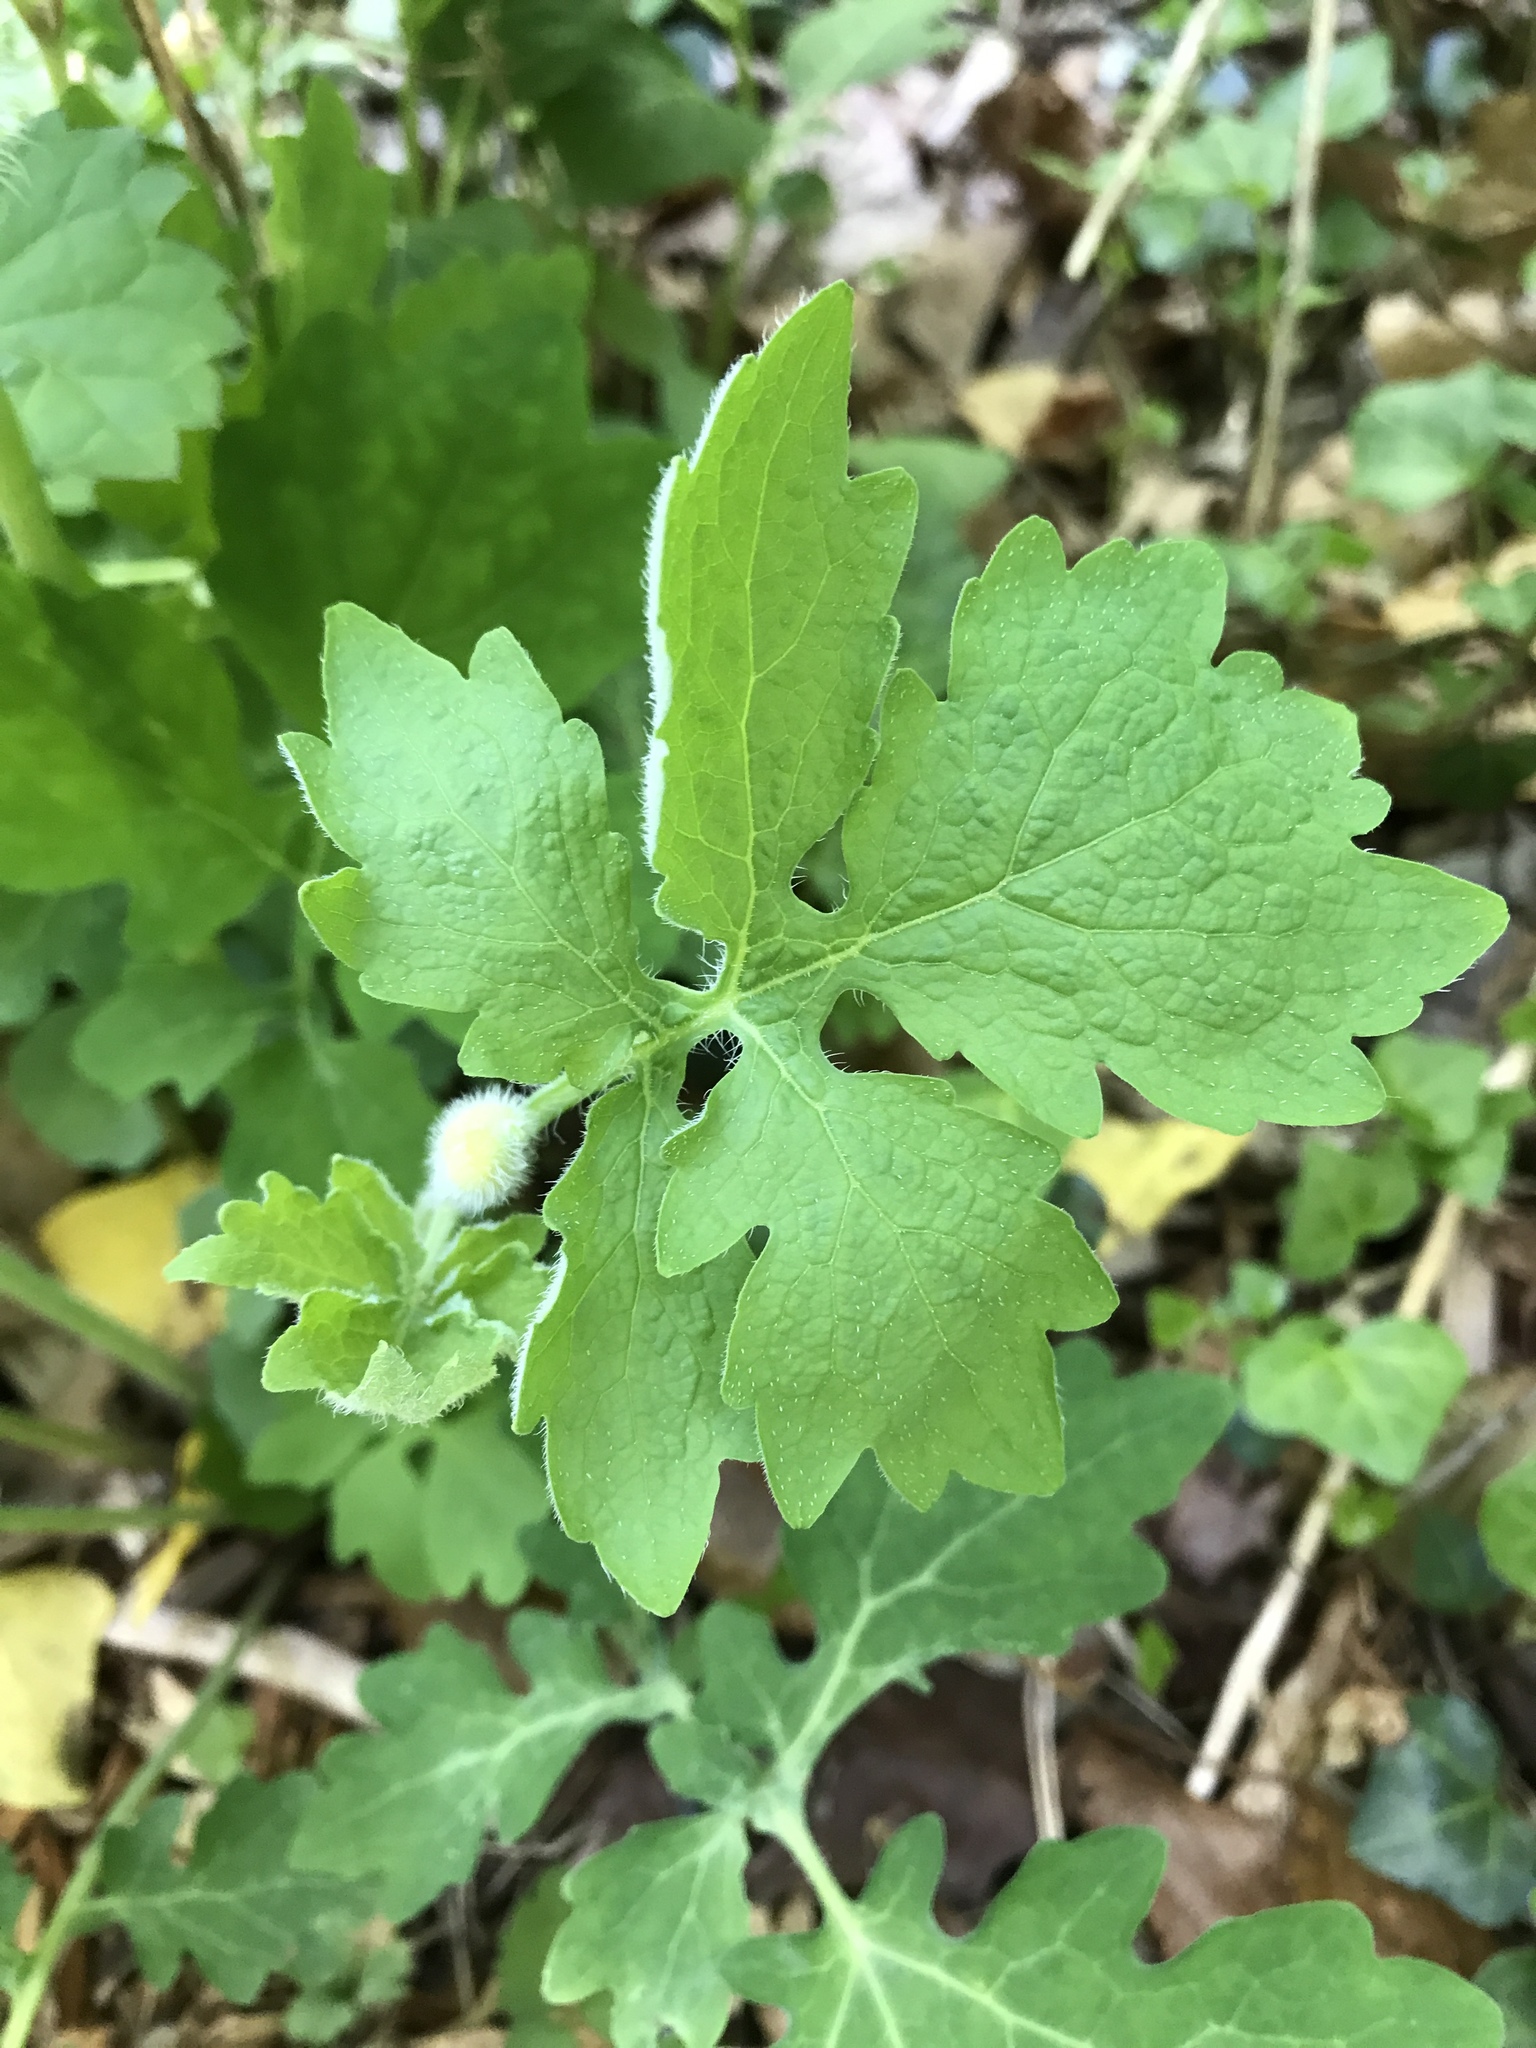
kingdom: Plantae
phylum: Tracheophyta
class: Magnoliopsida
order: Ranunculales
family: Papaveraceae
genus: Chelidonium
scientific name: Chelidonium majus
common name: Greater celandine
